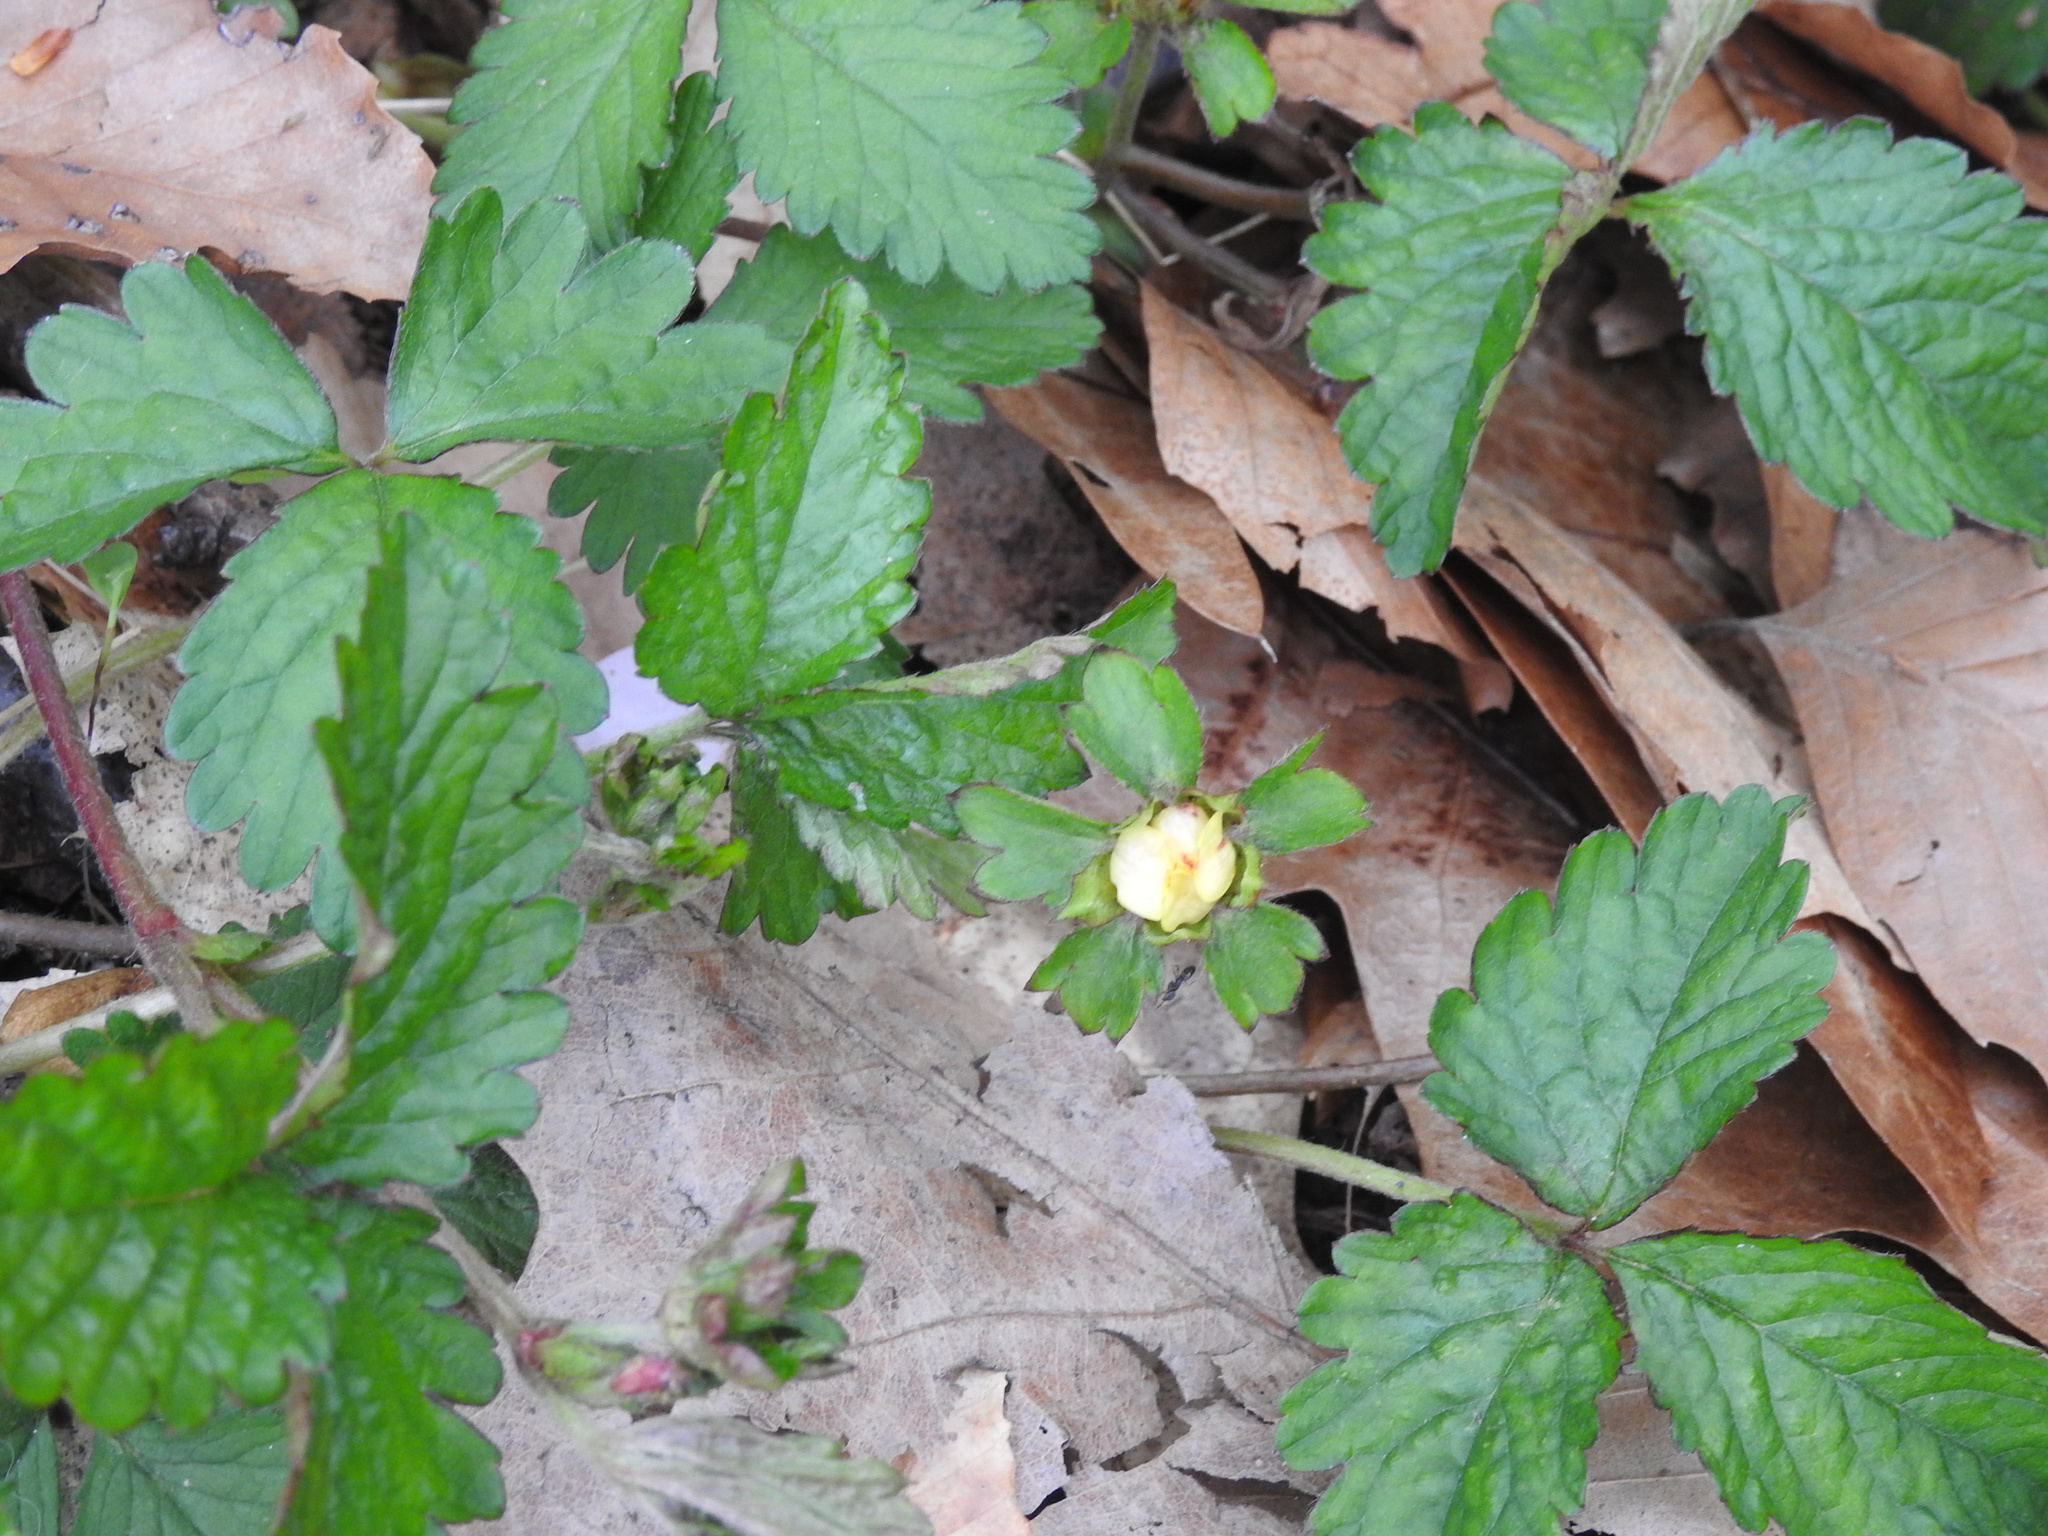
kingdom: Plantae
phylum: Tracheophyta
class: Magnoliopsida
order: Rosales
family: Rosaceae
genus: Potentilla
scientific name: Potentilla indica
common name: Yellow-flowered strawberry
